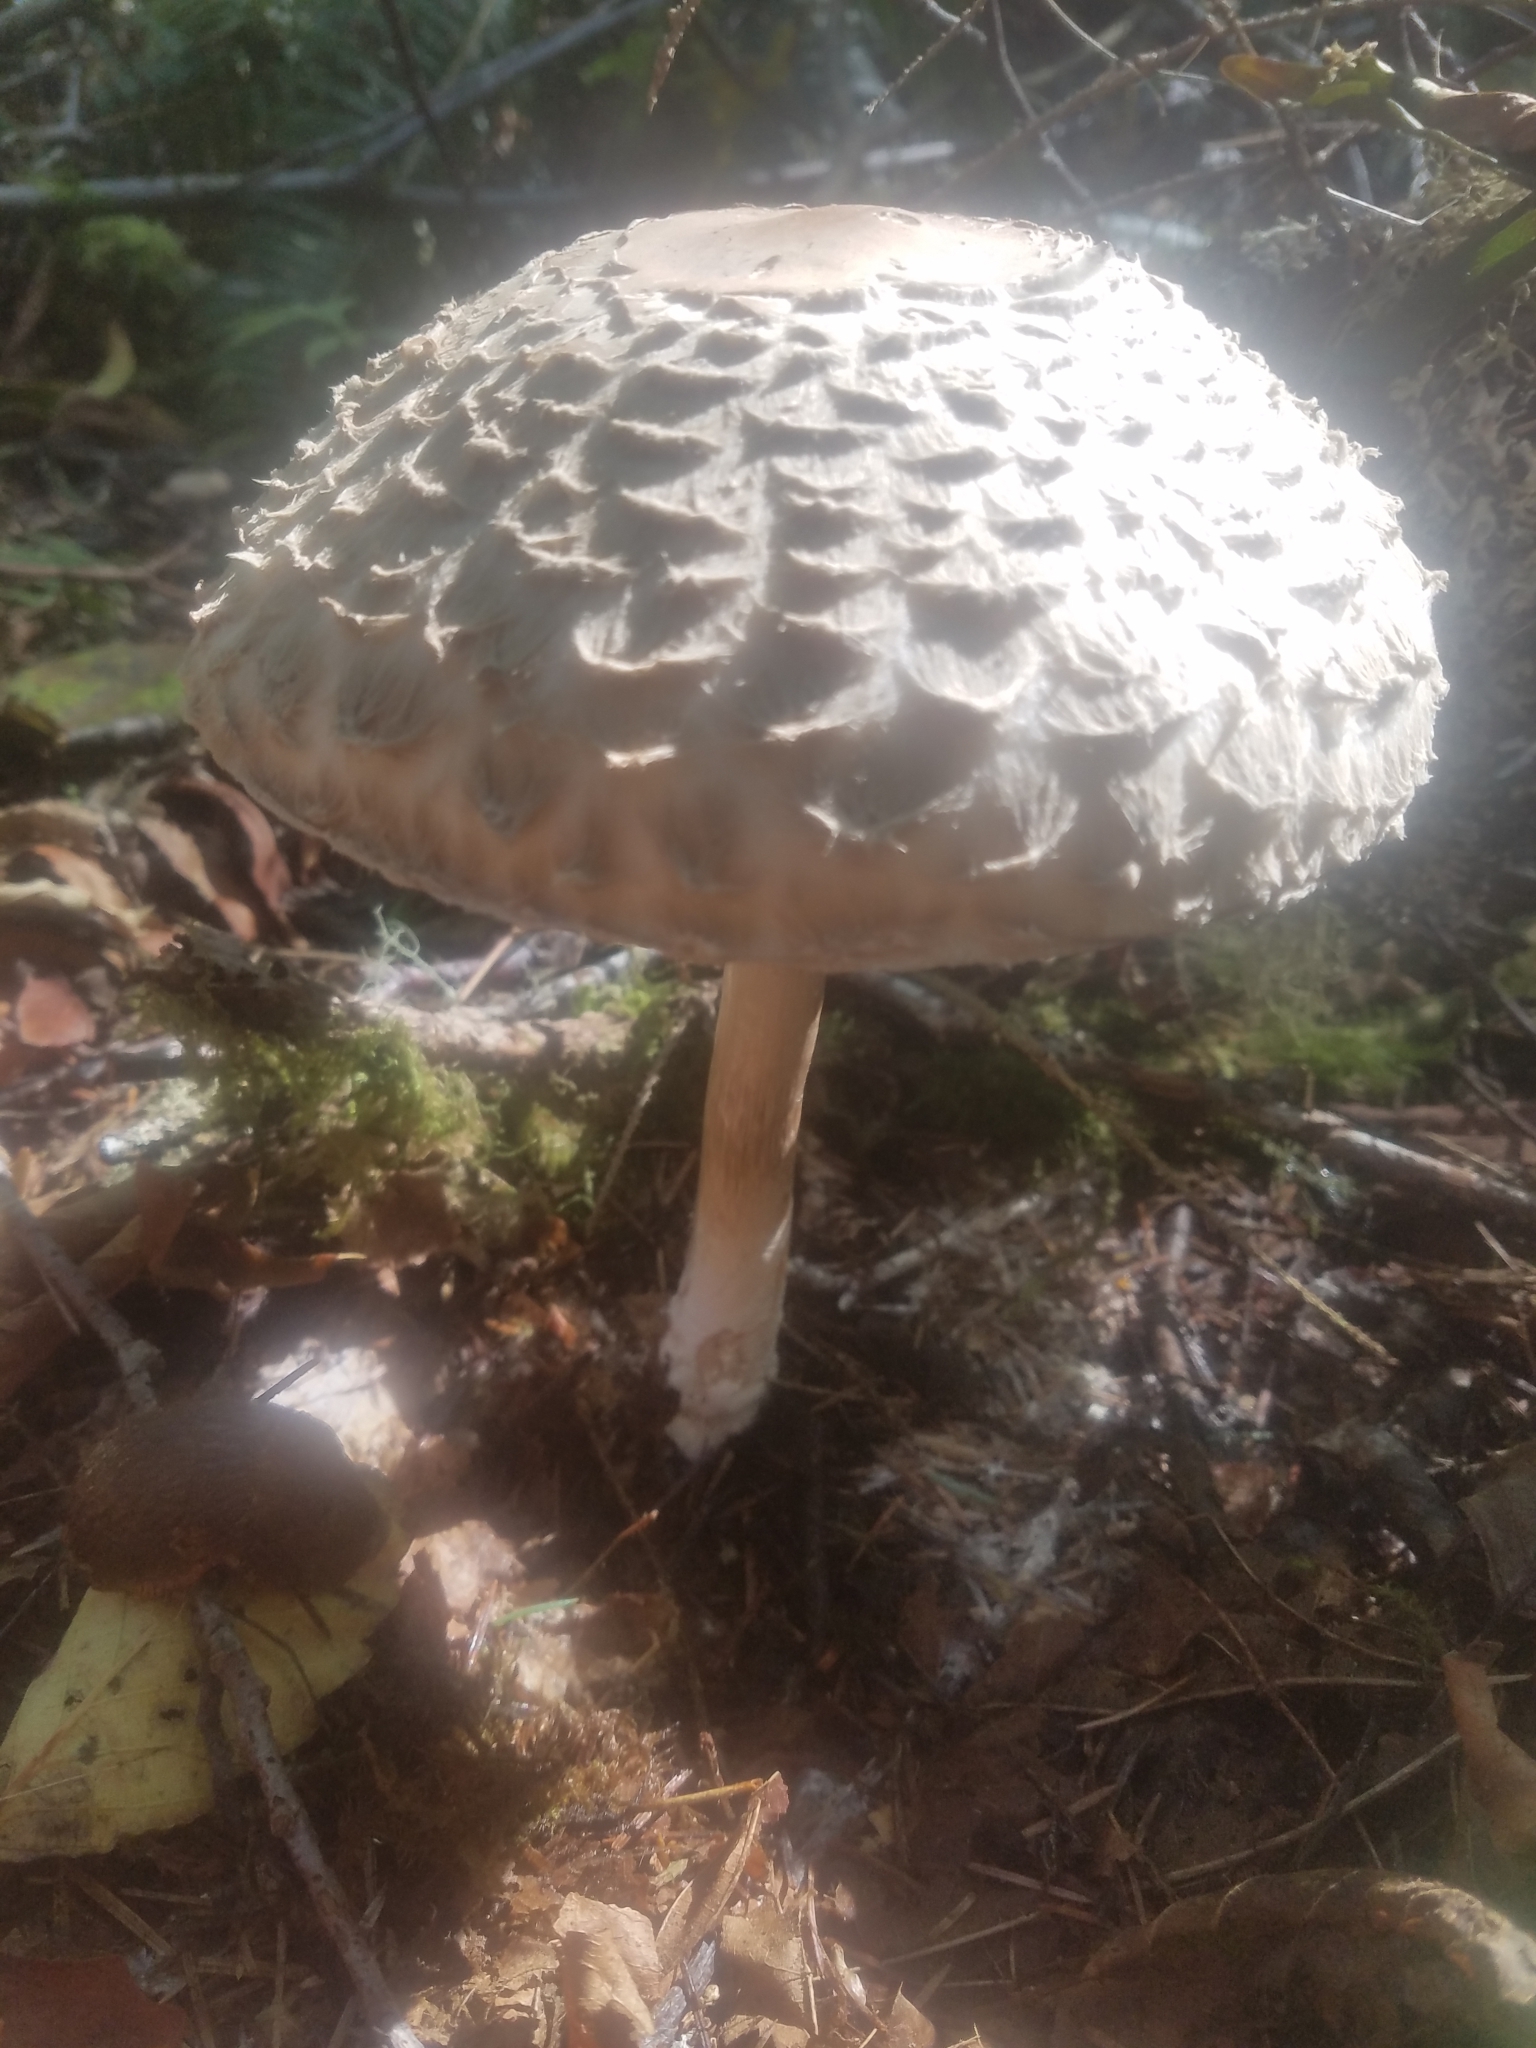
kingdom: Fungi
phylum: Basidiomycota
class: Agaricomycetes
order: Agaricales
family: Agaricaceae
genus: Chlorophyllum
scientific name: Chlorophyllum olivieri
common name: Conifer parasol
